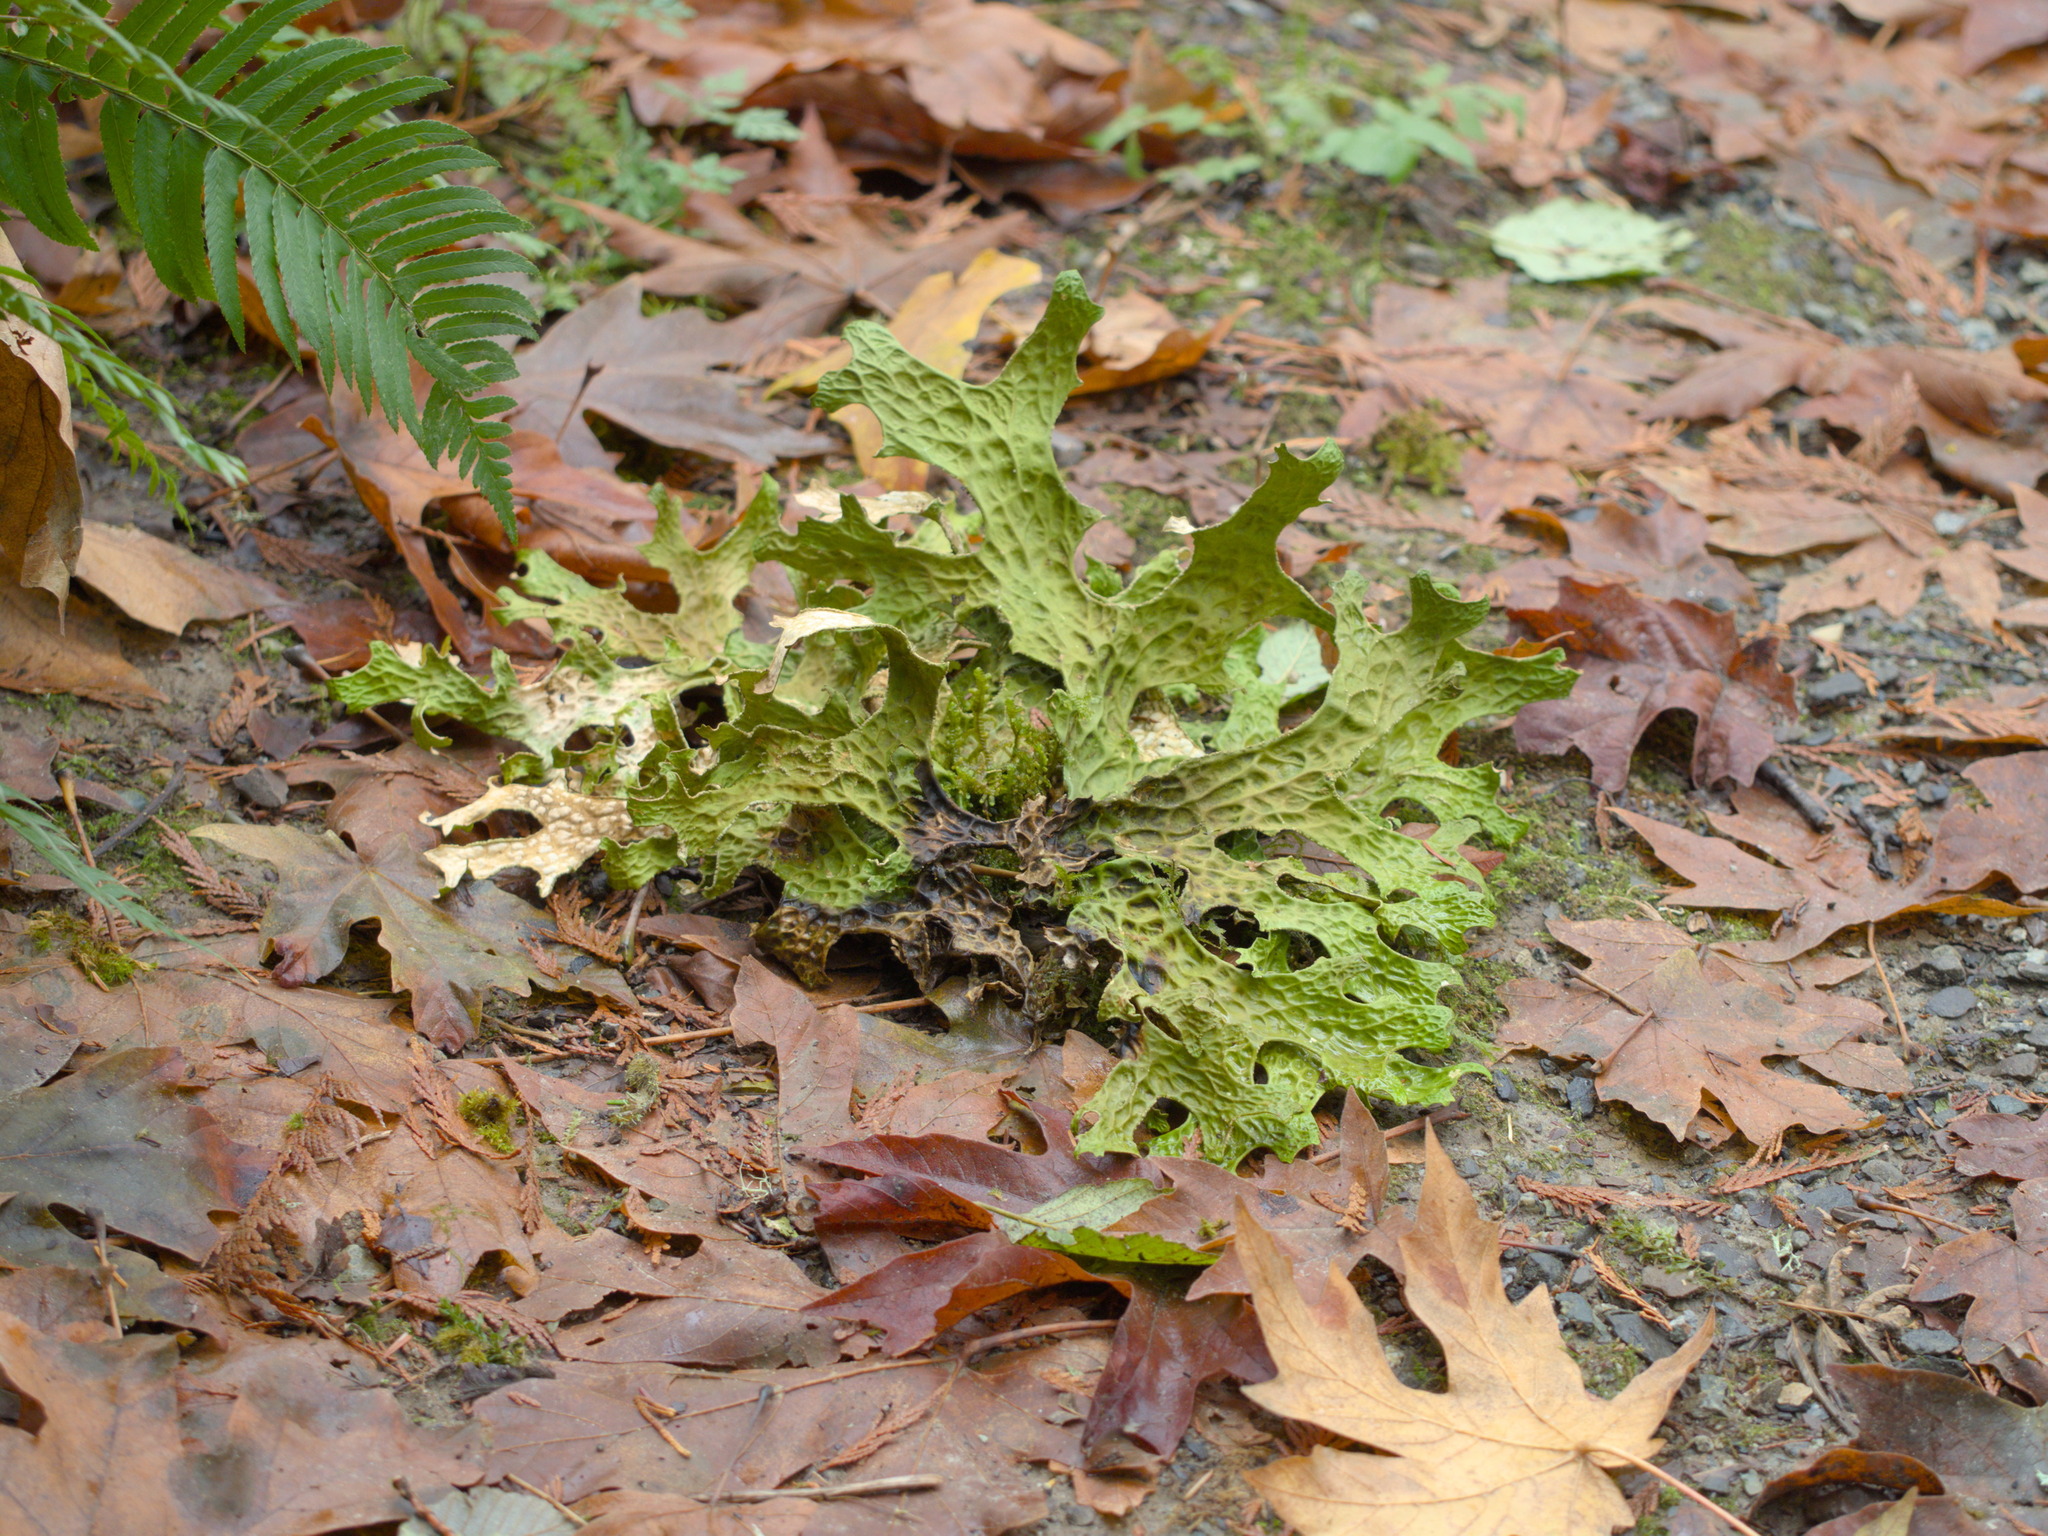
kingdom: Fungi
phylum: Ascomycota
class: Lecanoromycetes
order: Peltigerales
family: Lobariaceae
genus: Lobaria
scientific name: Lobaria pulmonaria
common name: Lungwort
